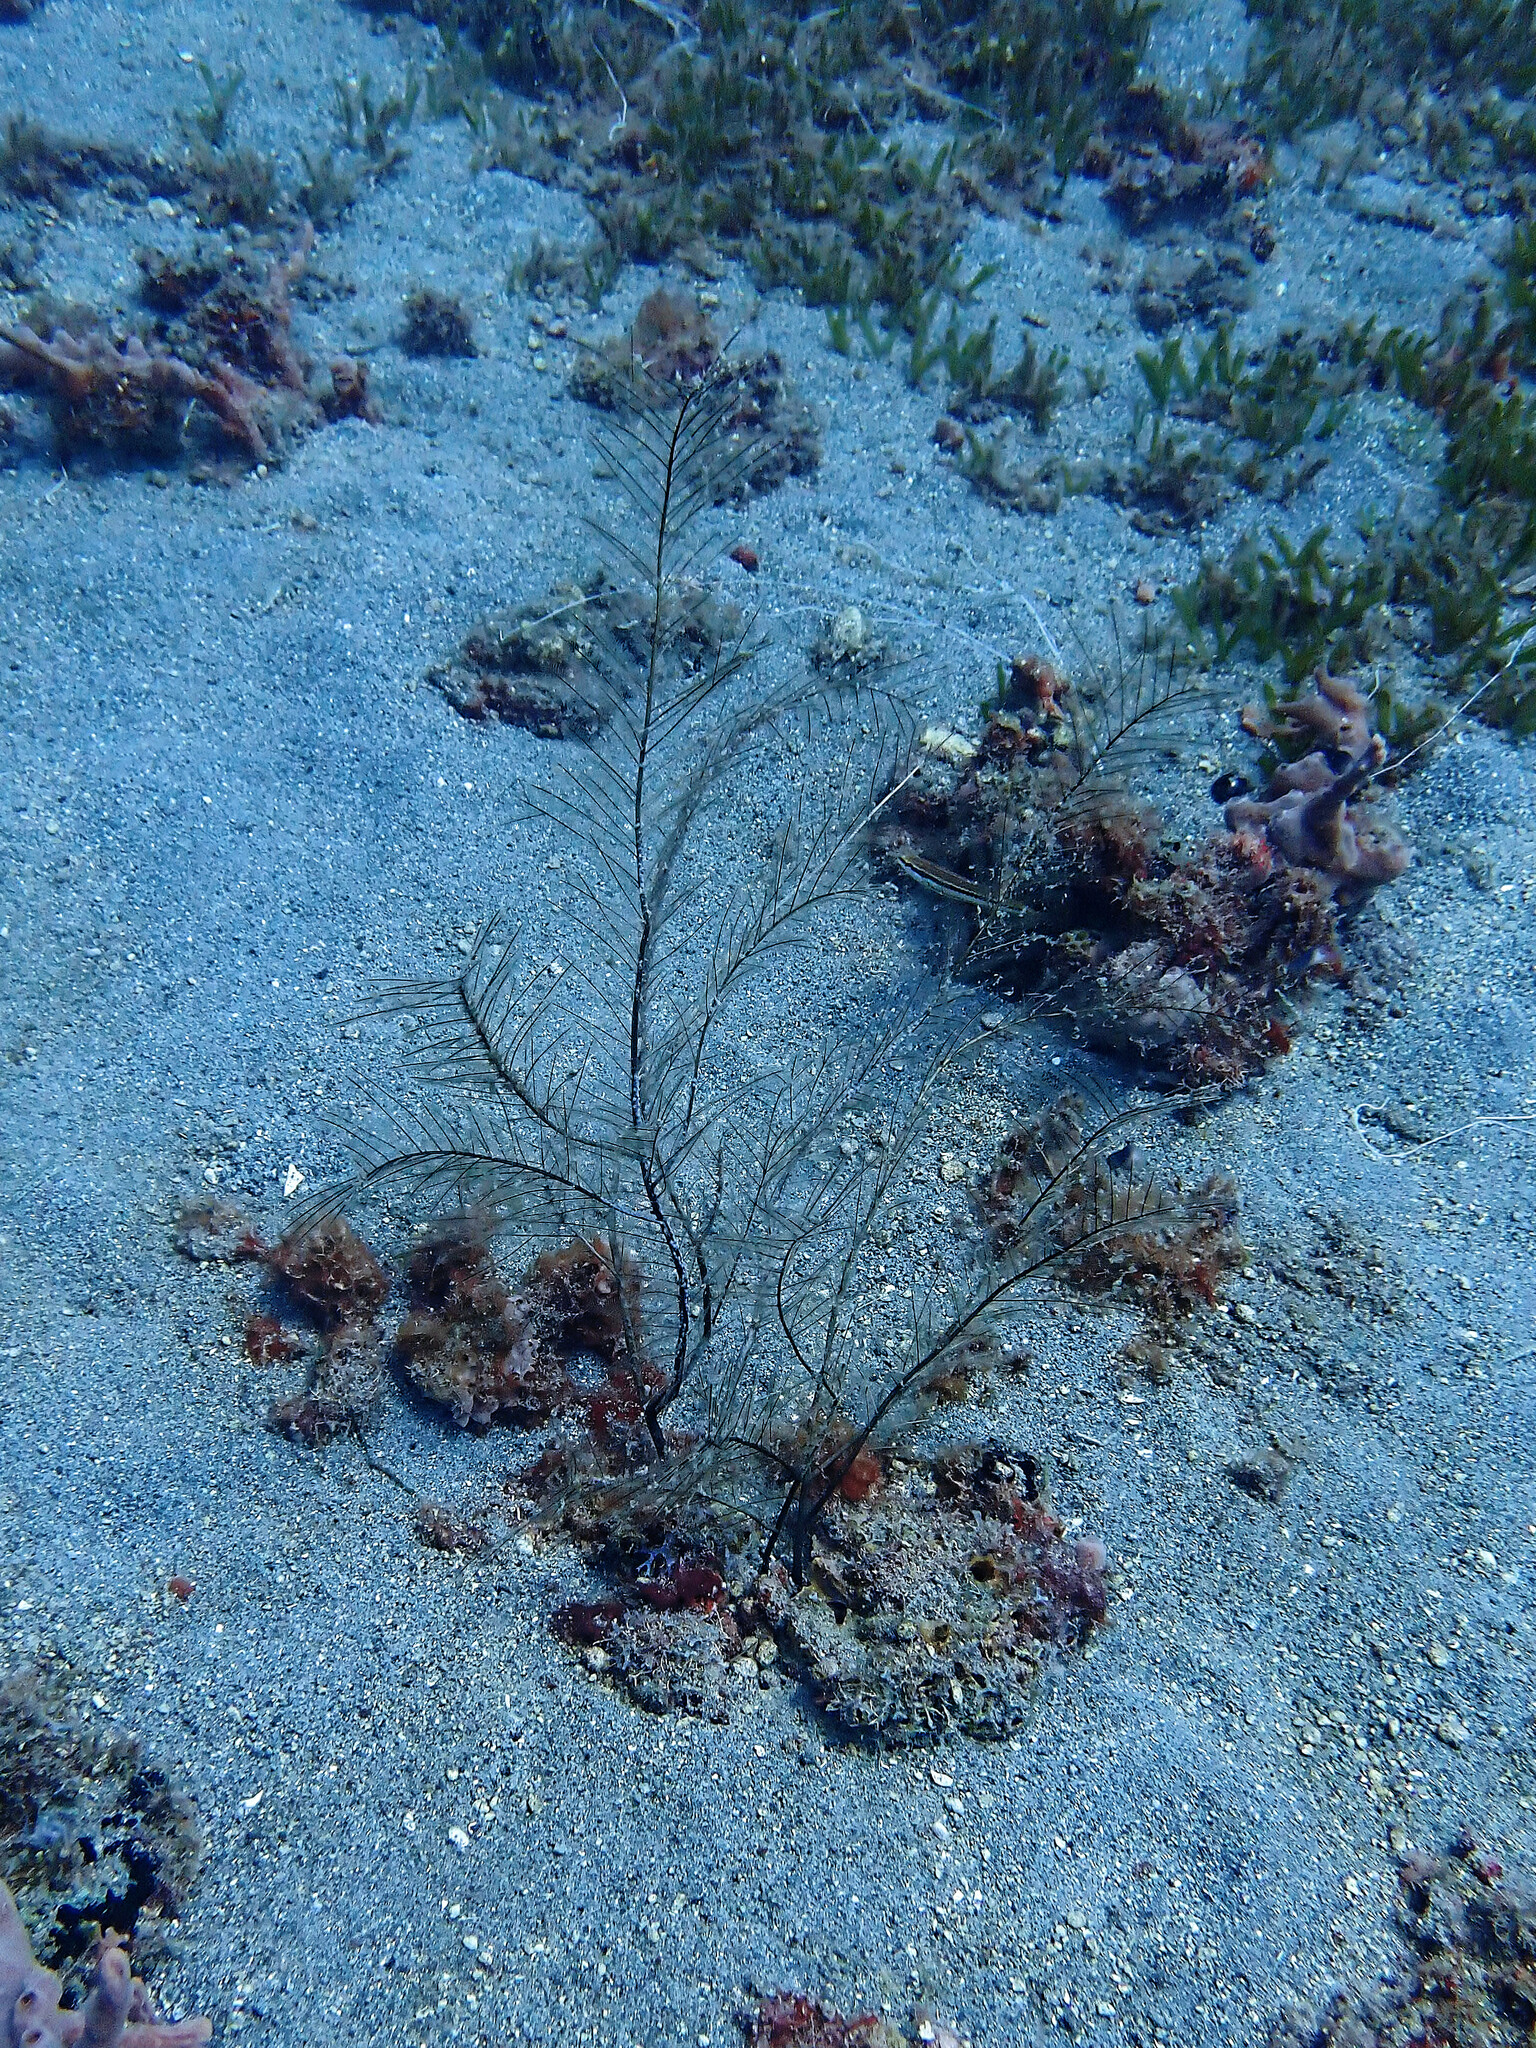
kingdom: Animalia
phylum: Cnidaria
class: Hydrozoa
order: Leptothecata
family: Plumulariidae
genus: Dentitheca
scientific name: Dentitheca dendritica
